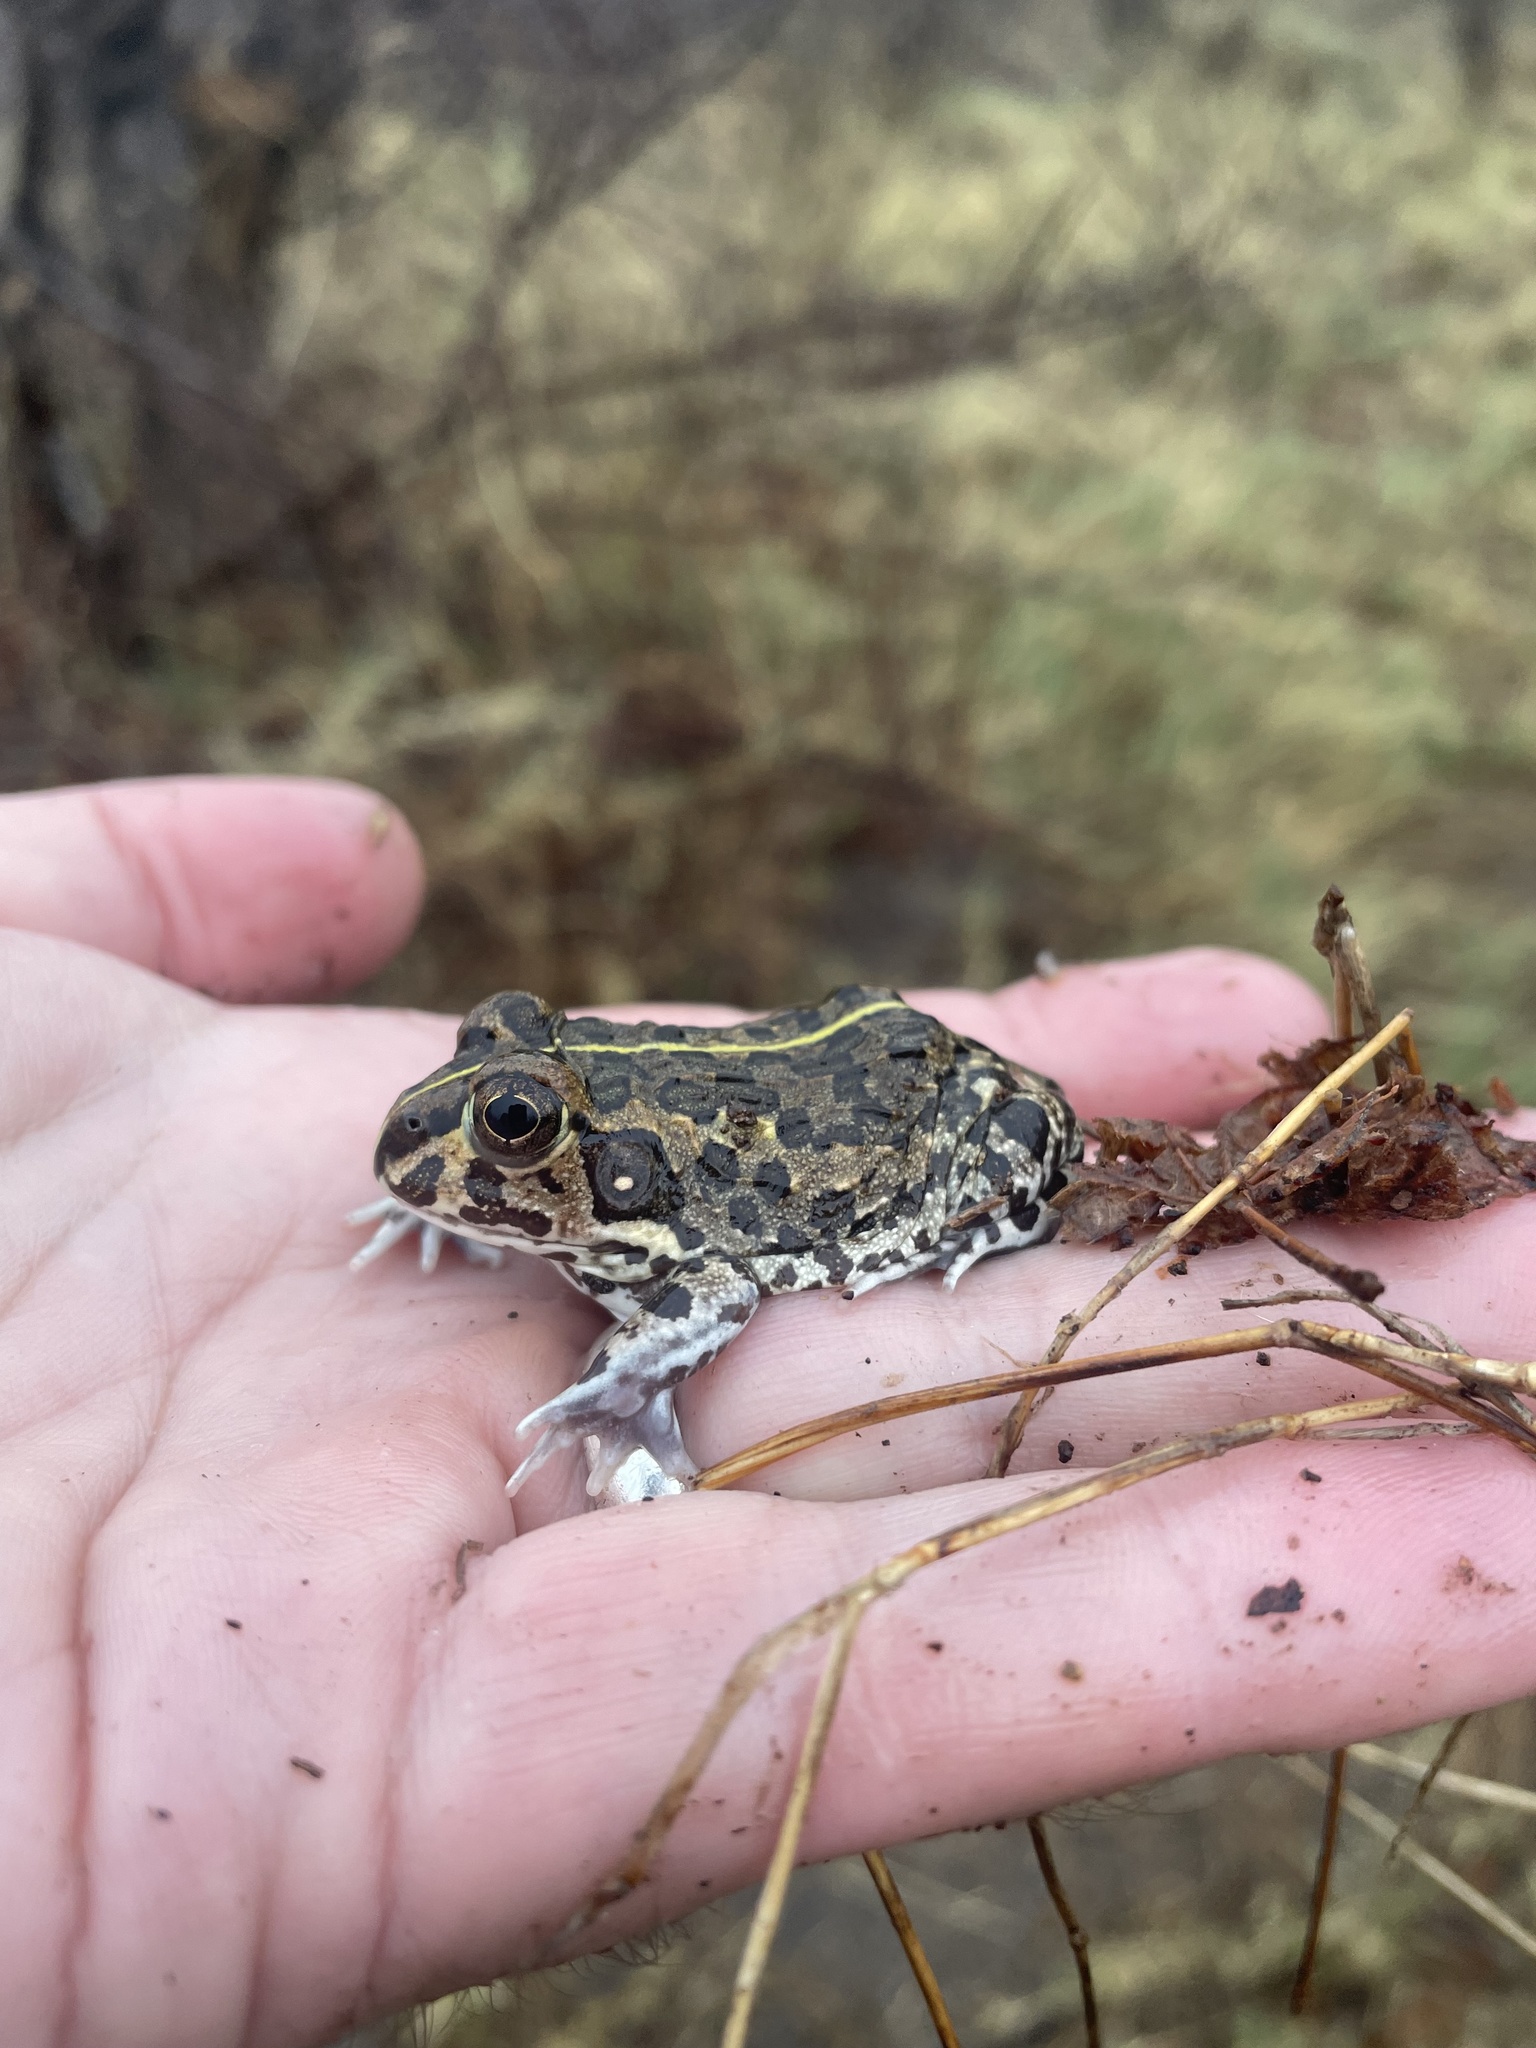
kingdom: Animalia
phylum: Chordata
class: Amphibia
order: Anura
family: Pyxicephalidae
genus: Pyxicephalus
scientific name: Pyxicephalus edulis
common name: Peter's bullfrog
